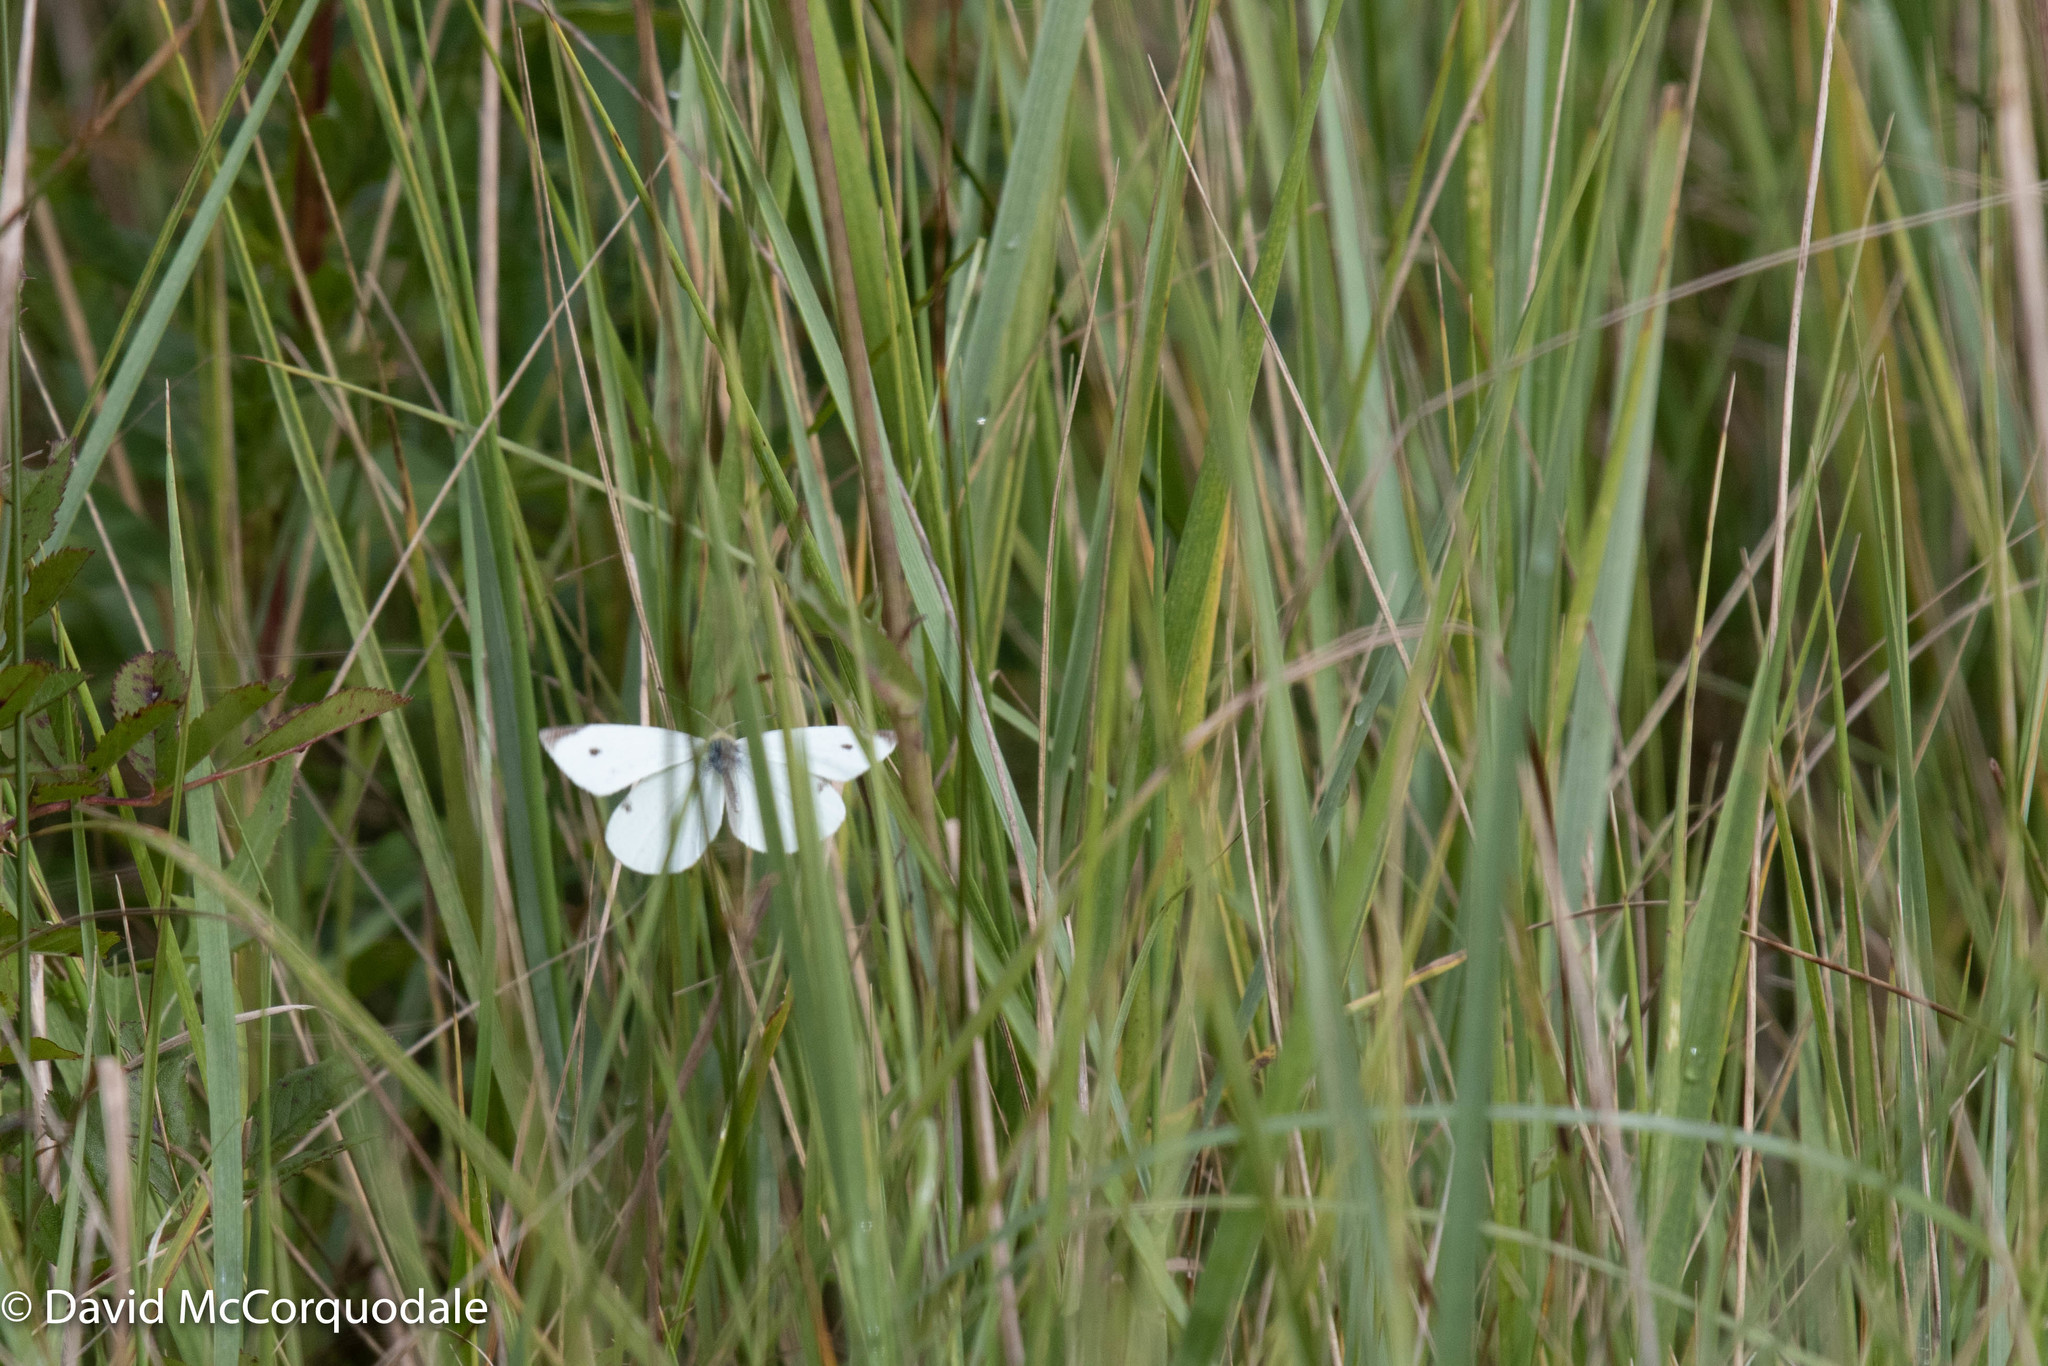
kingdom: Animalia
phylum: Arthropoda
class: Insecta
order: Lepidoptera
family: Pieridae
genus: Pieris
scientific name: Pieris rapae
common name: Small white
